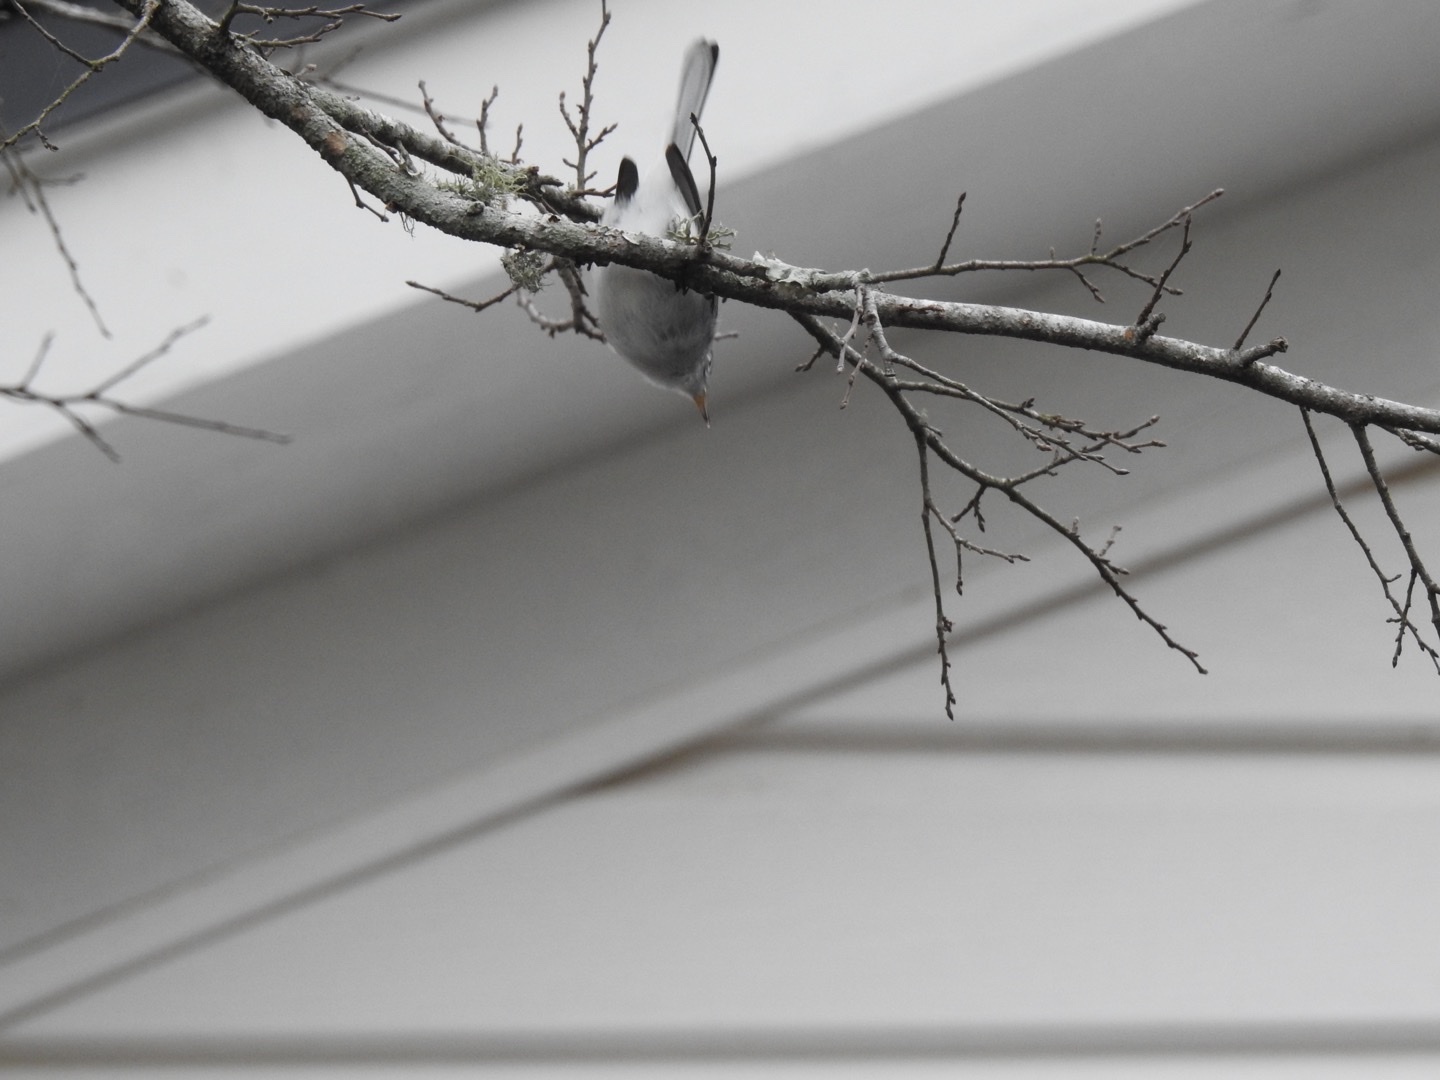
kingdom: Animalia
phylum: Chordata
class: Aves
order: Passeriformes
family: Polioptilidae
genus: Polioptila
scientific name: Polioptila caerulea
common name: Blue-gray gnatcatcher
